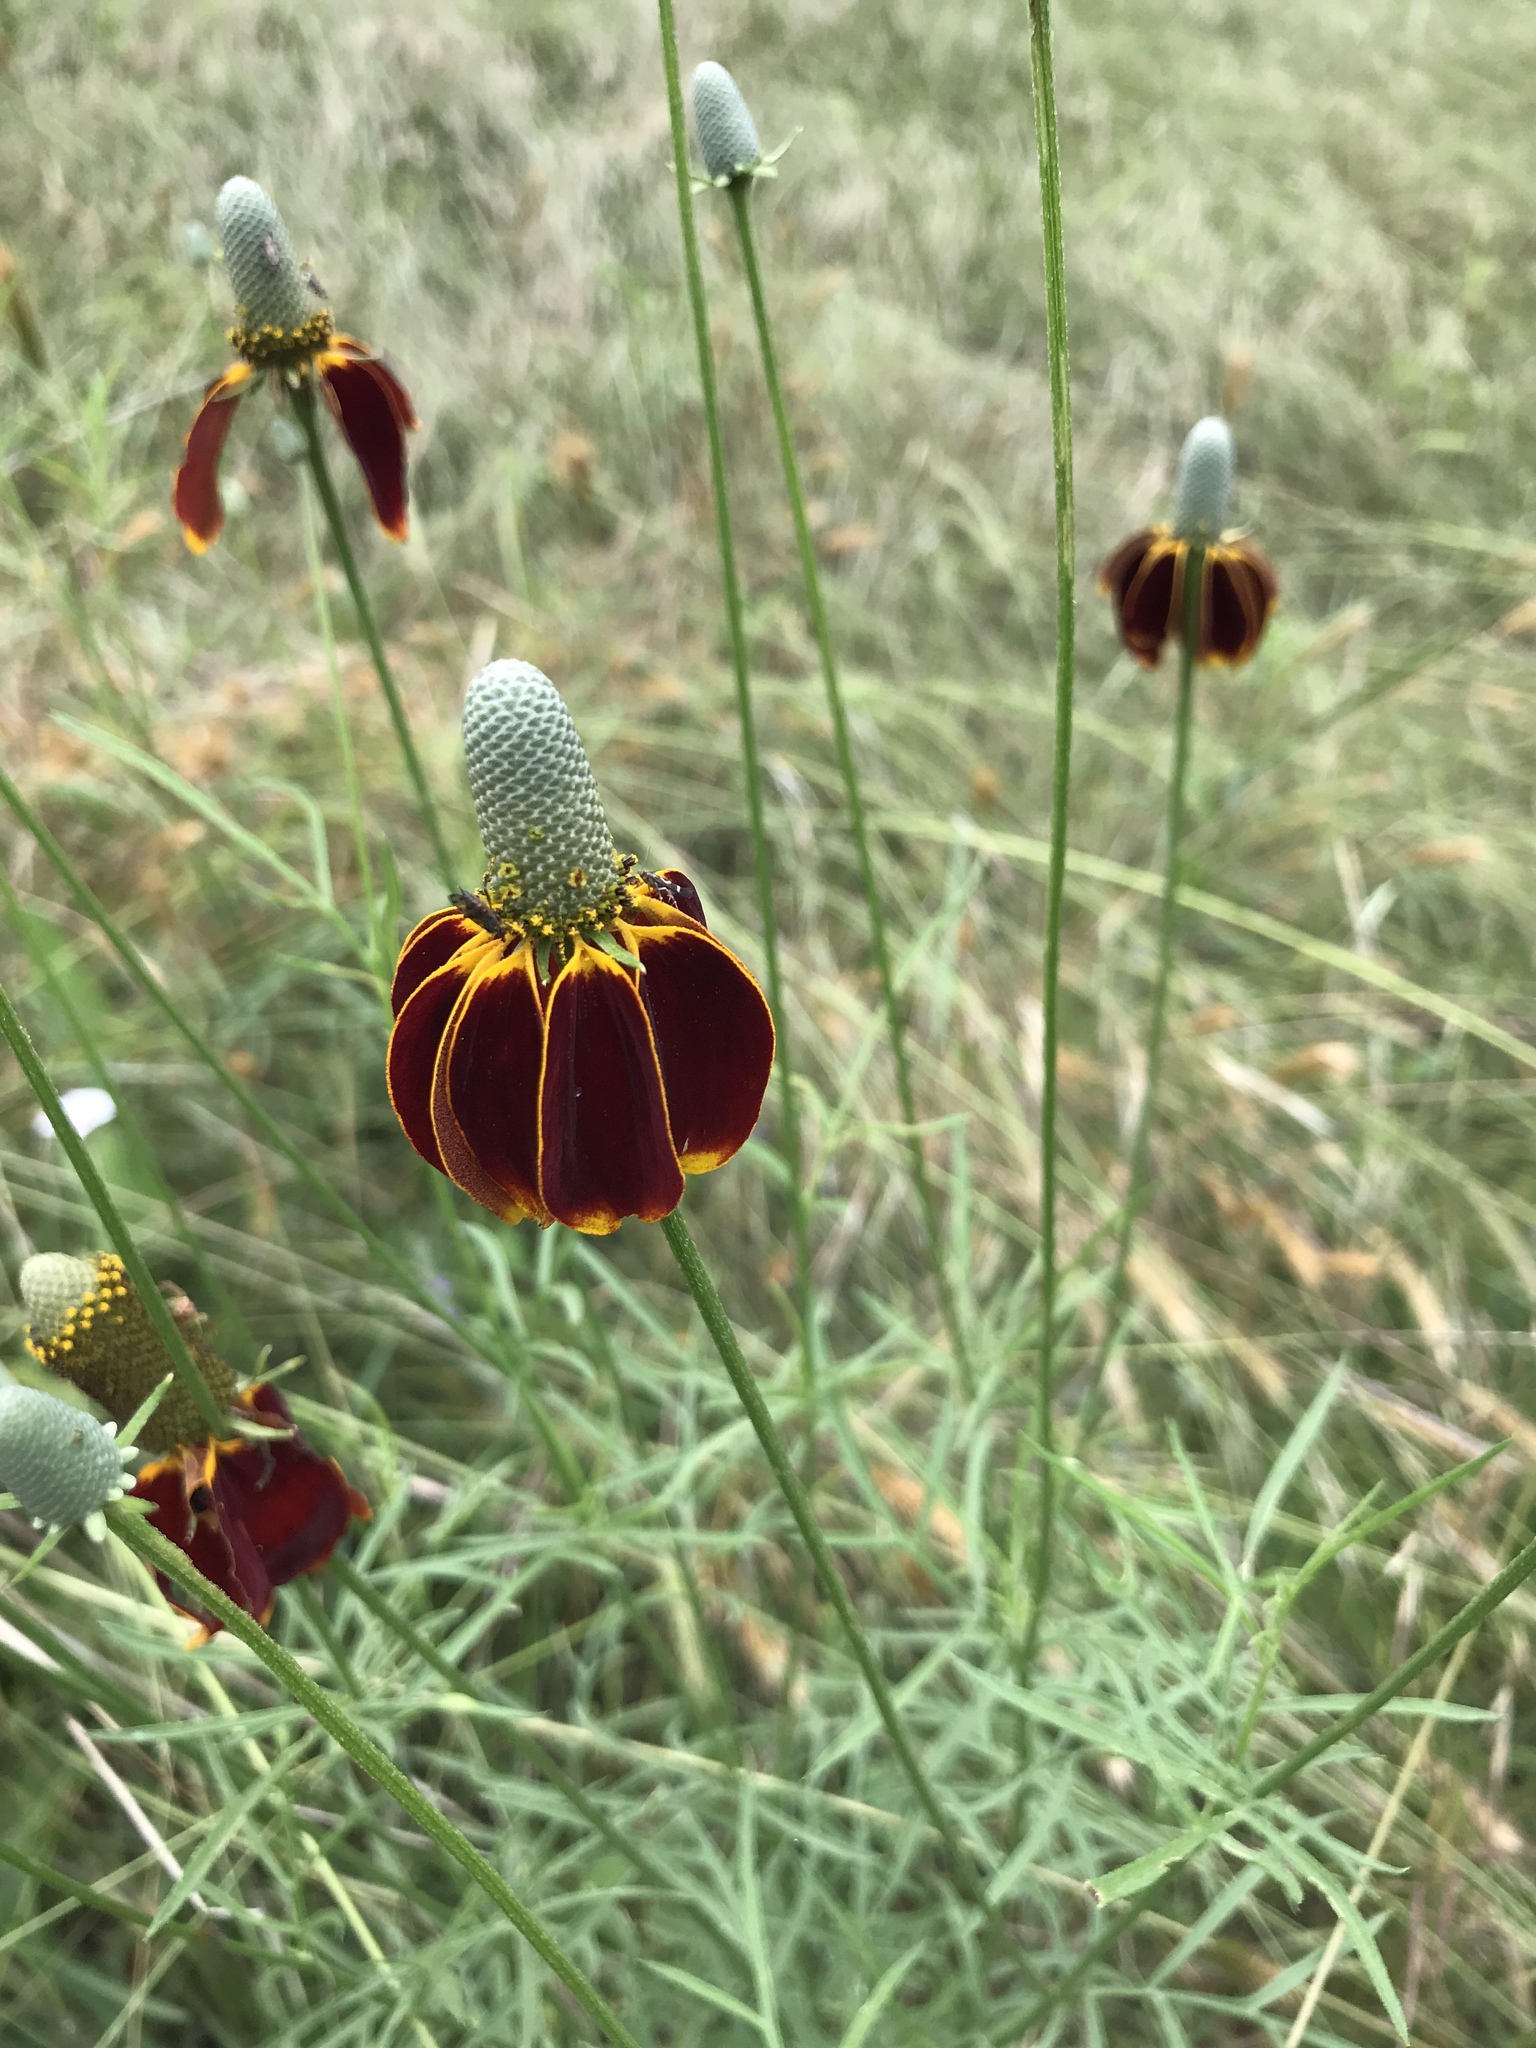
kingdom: Plantae
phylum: Tracheophyta
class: Magnoliopsida
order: Asterales
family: Asteraceae
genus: Ratibida
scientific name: Ratibida columnifera
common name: Prairie coneflower
